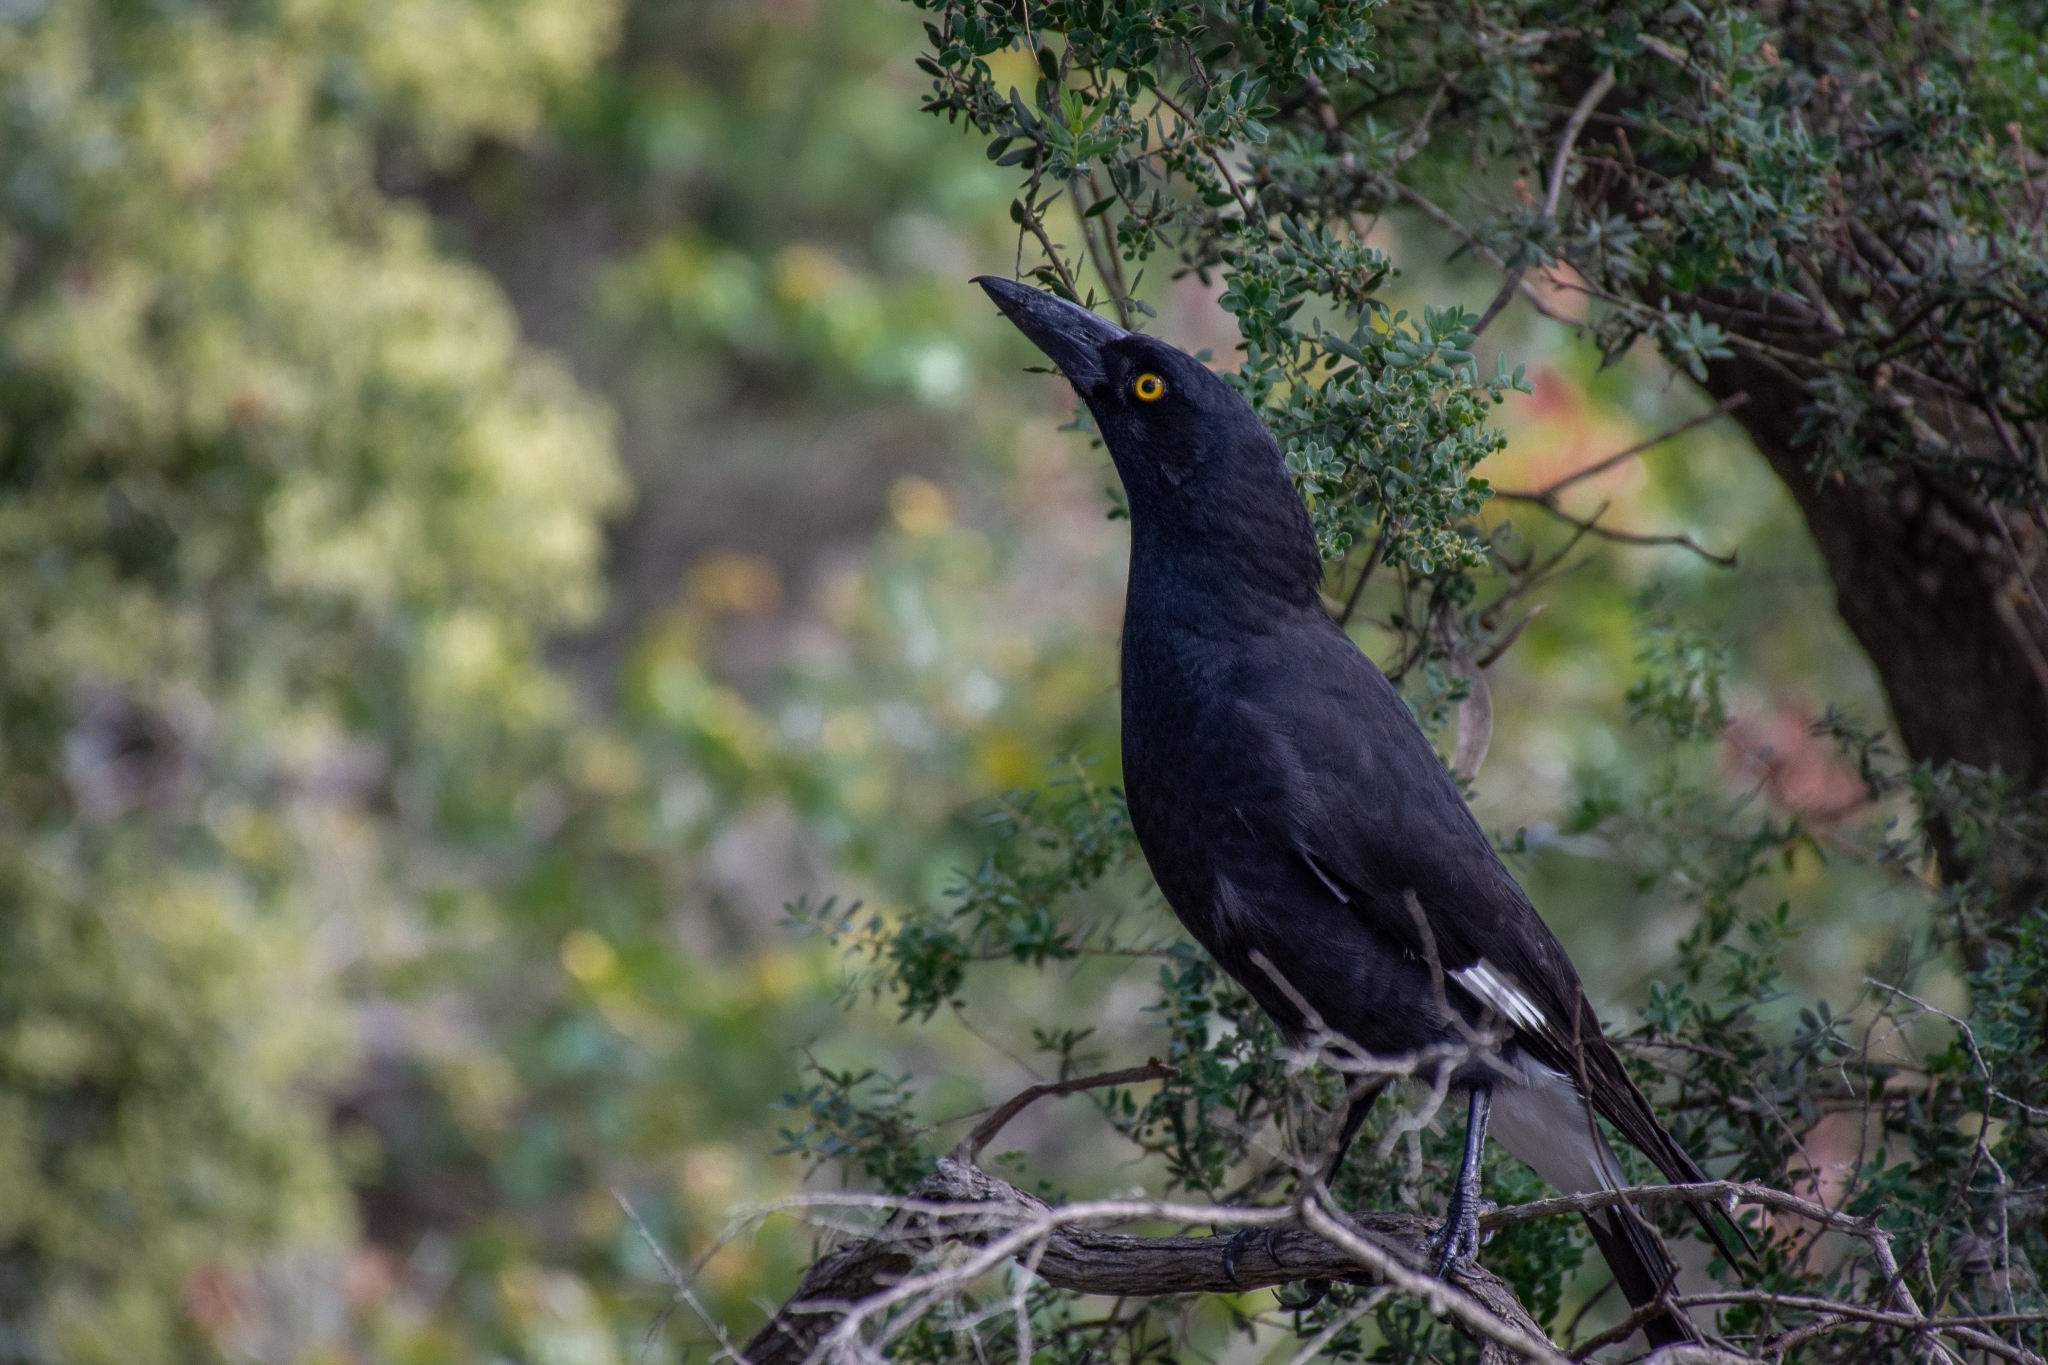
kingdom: Animalia
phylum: Chordata
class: Aves
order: Passeriformes
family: Cracticidae
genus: Strepera
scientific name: Strepera graculina
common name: Pied currawong
